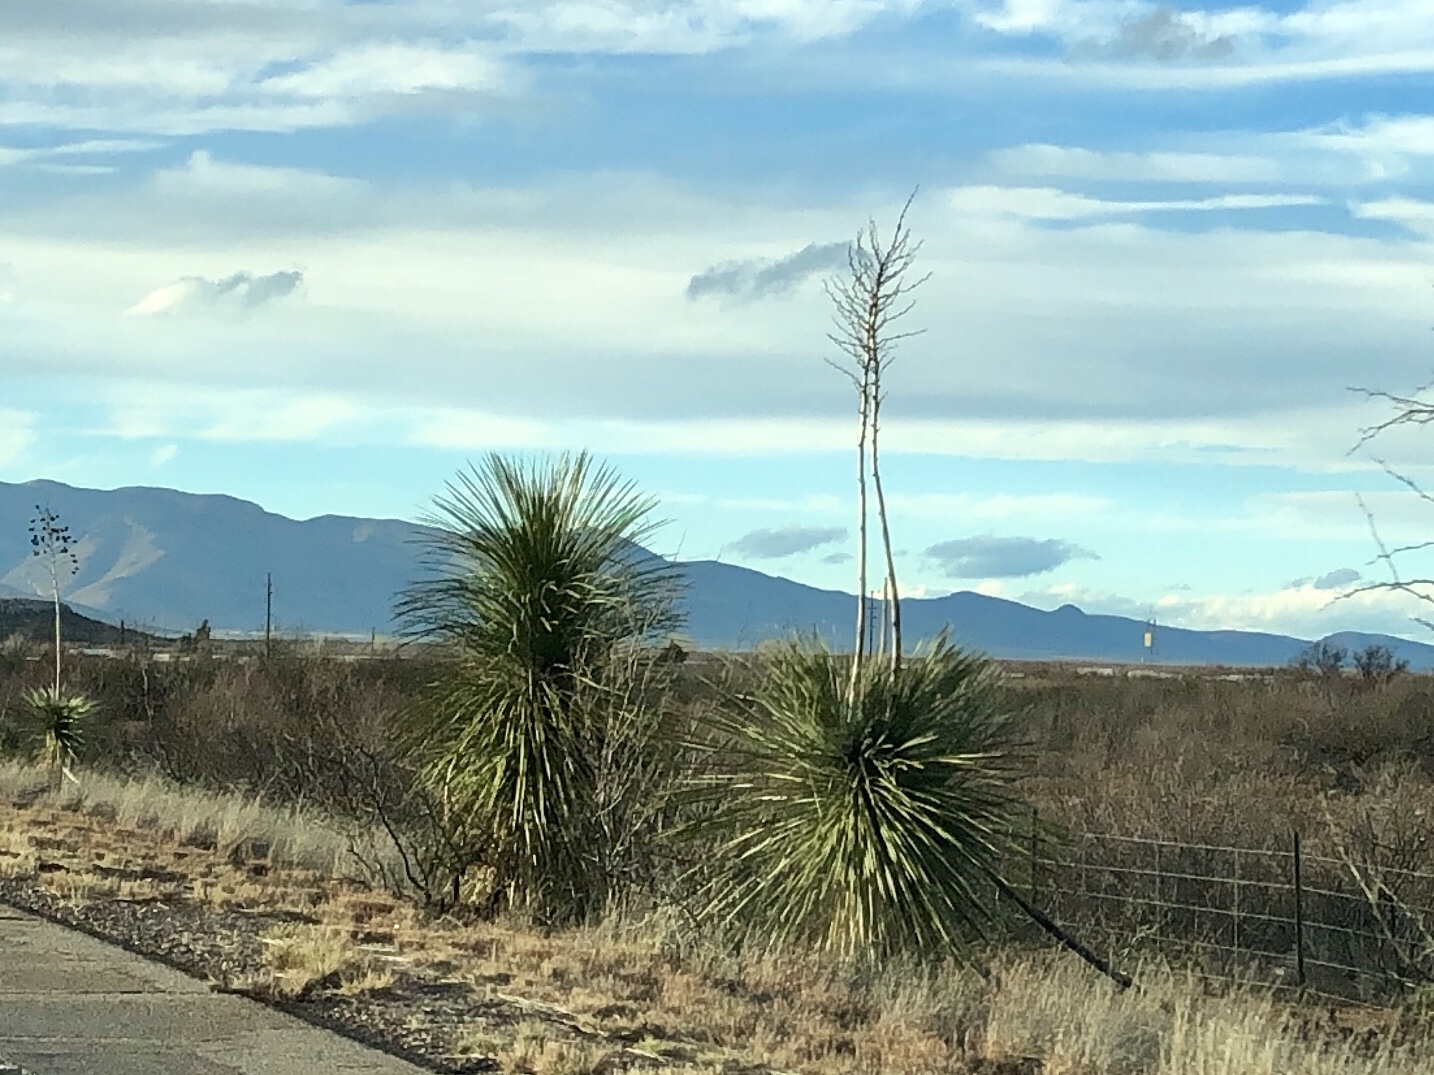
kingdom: Plantae
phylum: Tracheophyta
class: Liliopsida
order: Asparagales
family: Asparagaceae
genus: Yucca
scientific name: Yucca elata
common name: Palmella
